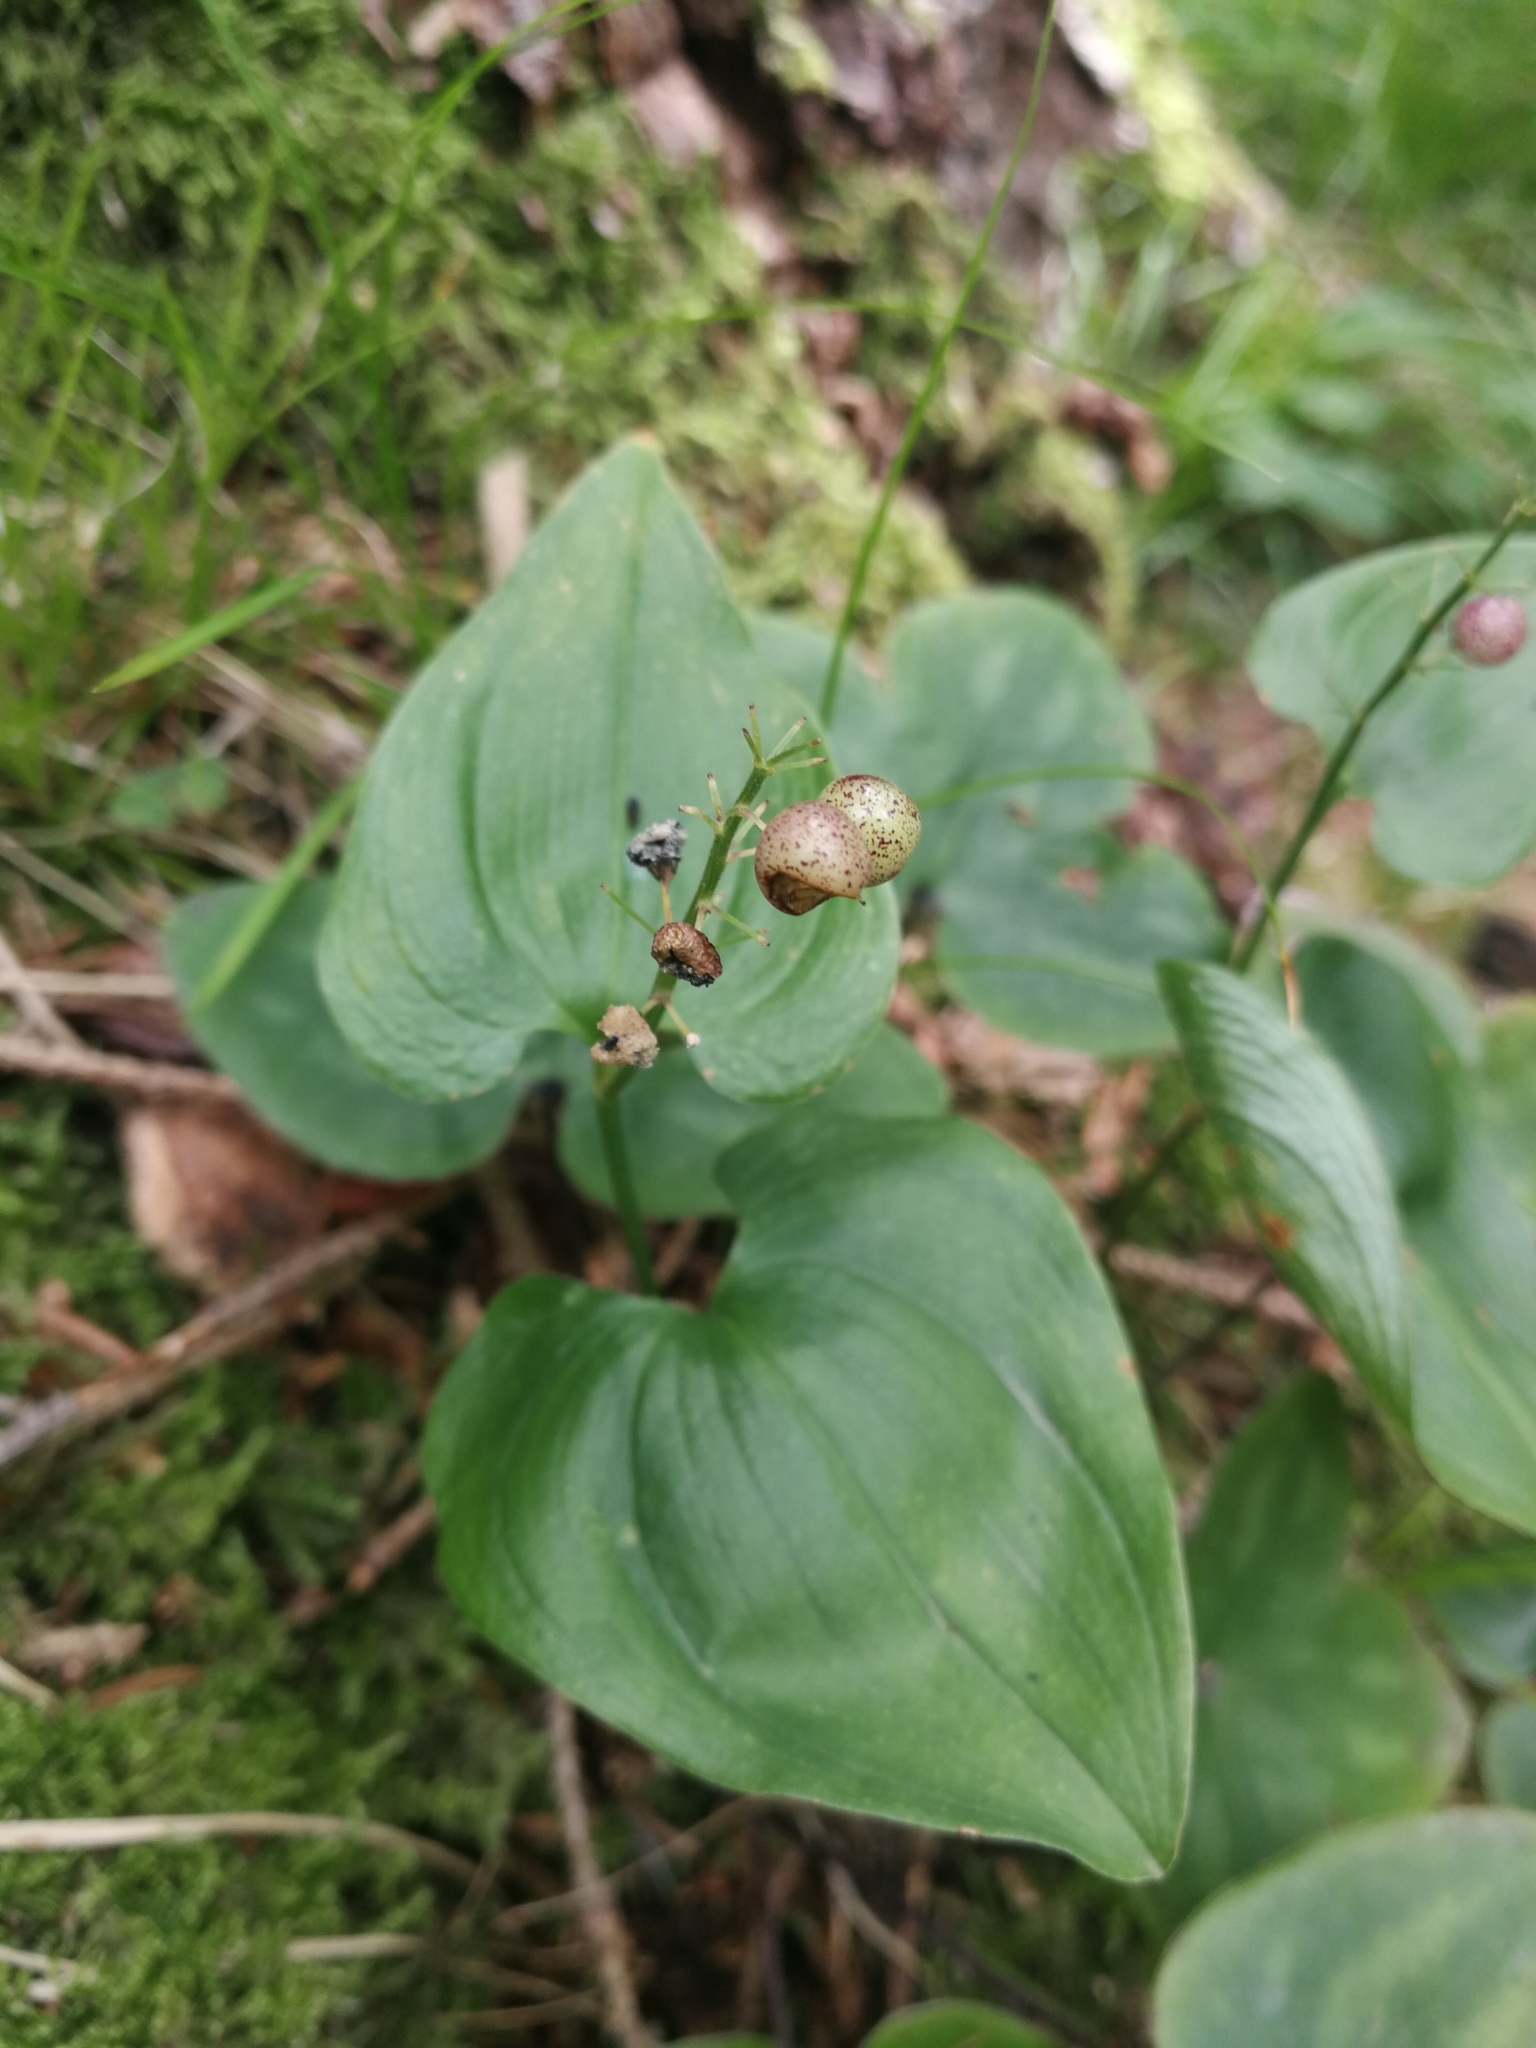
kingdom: Plantae
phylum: Tracheophyta
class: Liliopsida
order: Asparagales
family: Asparagaceae
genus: Maianthemum
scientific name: Maianthemum bifolium
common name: May lily
